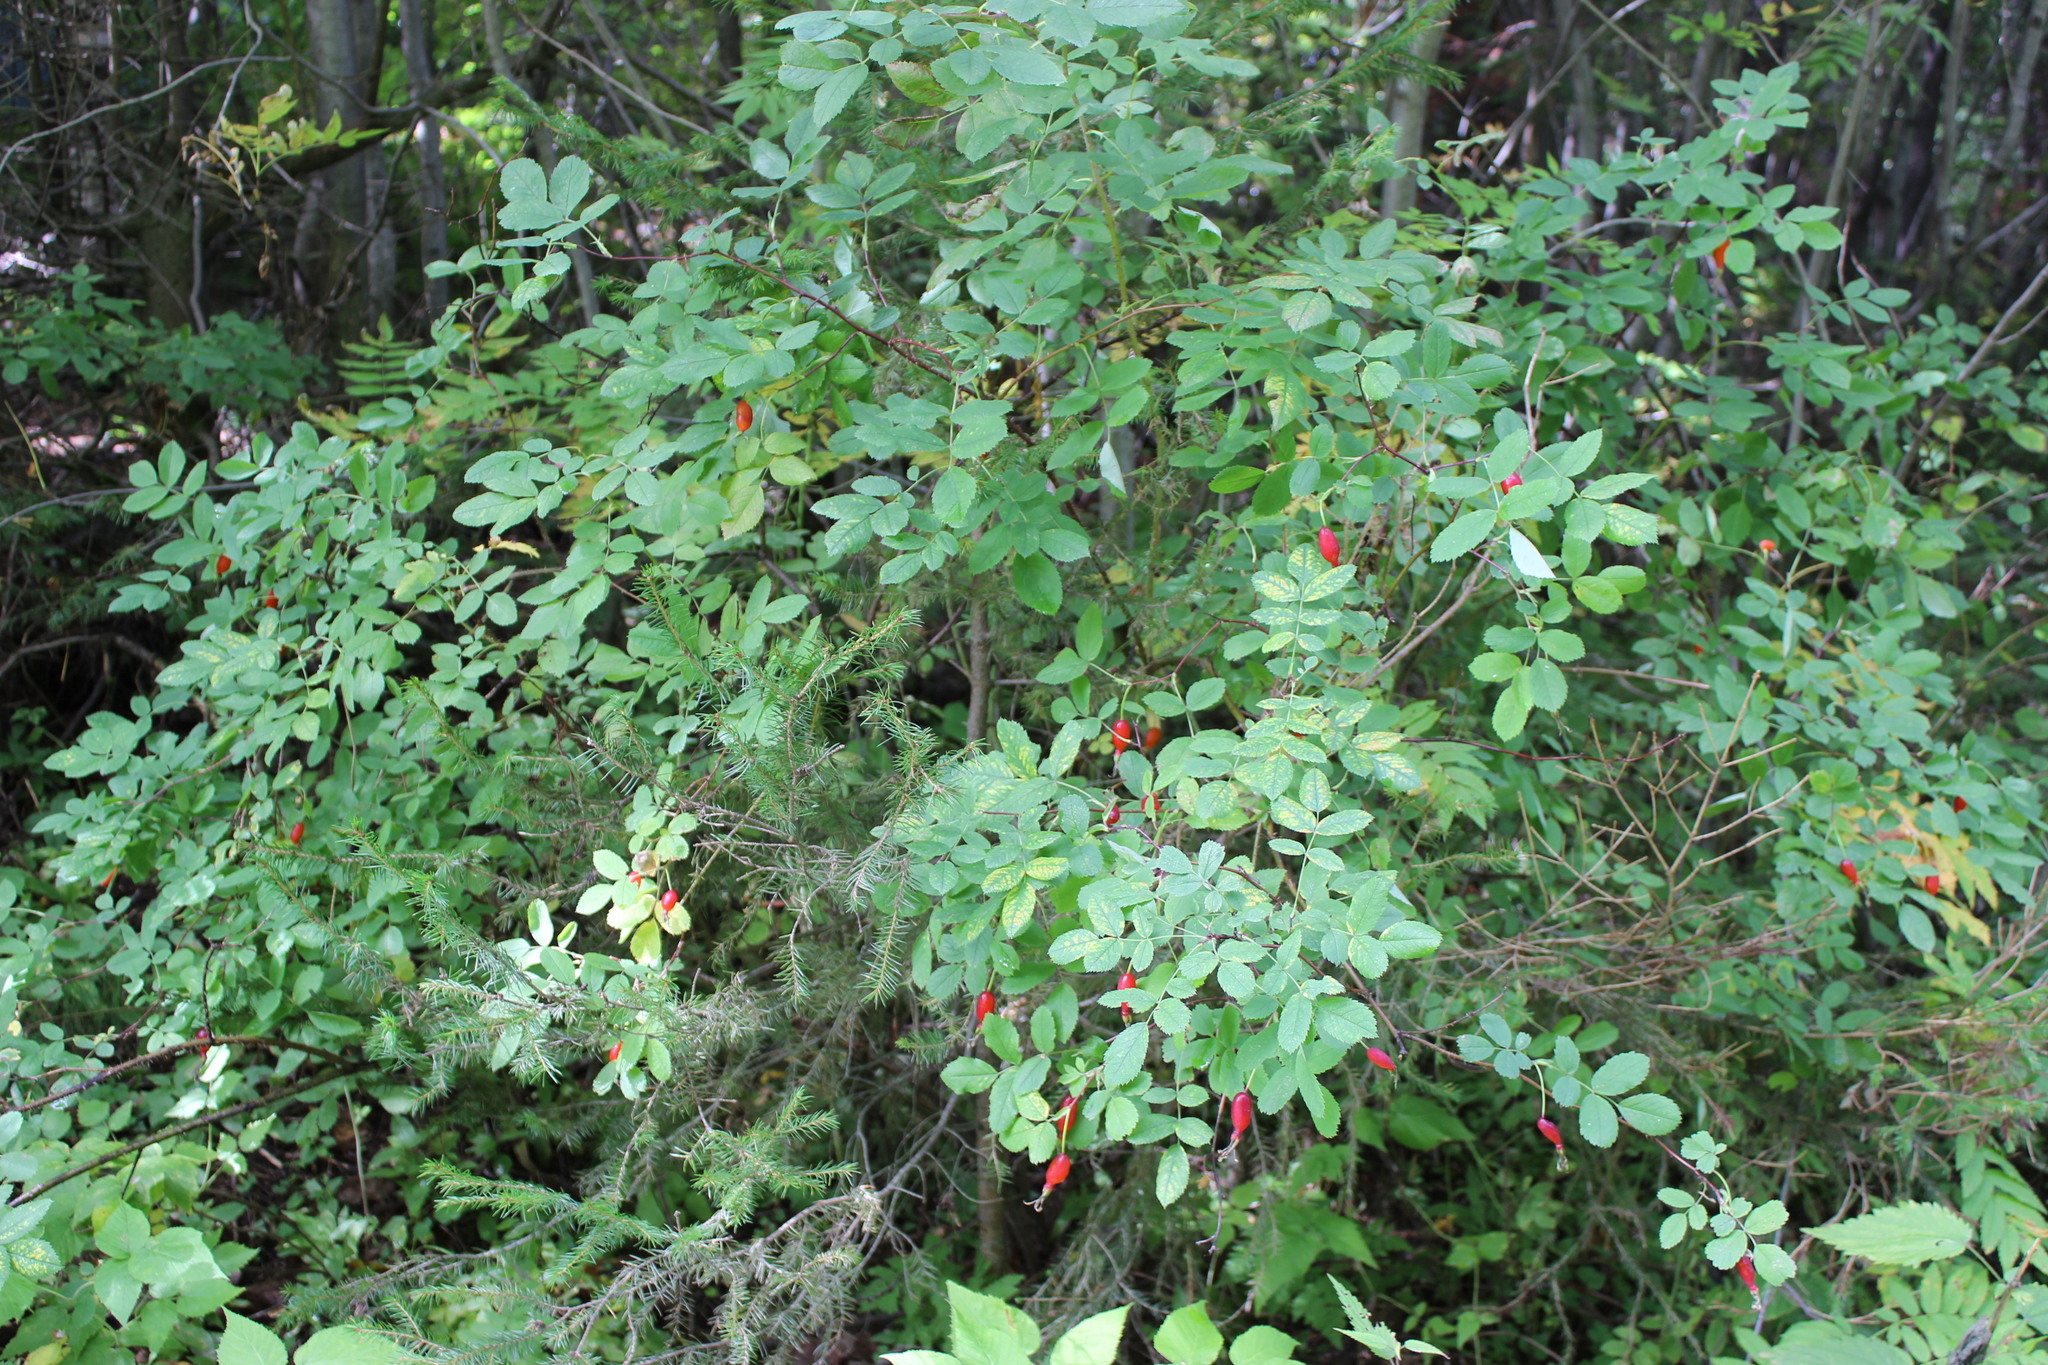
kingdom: Plantae
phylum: Tracheophyta
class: Magnoliopsida
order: Rosales
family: Rosaceae
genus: Rosa
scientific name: Rosa acicularis
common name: Prickly rose
